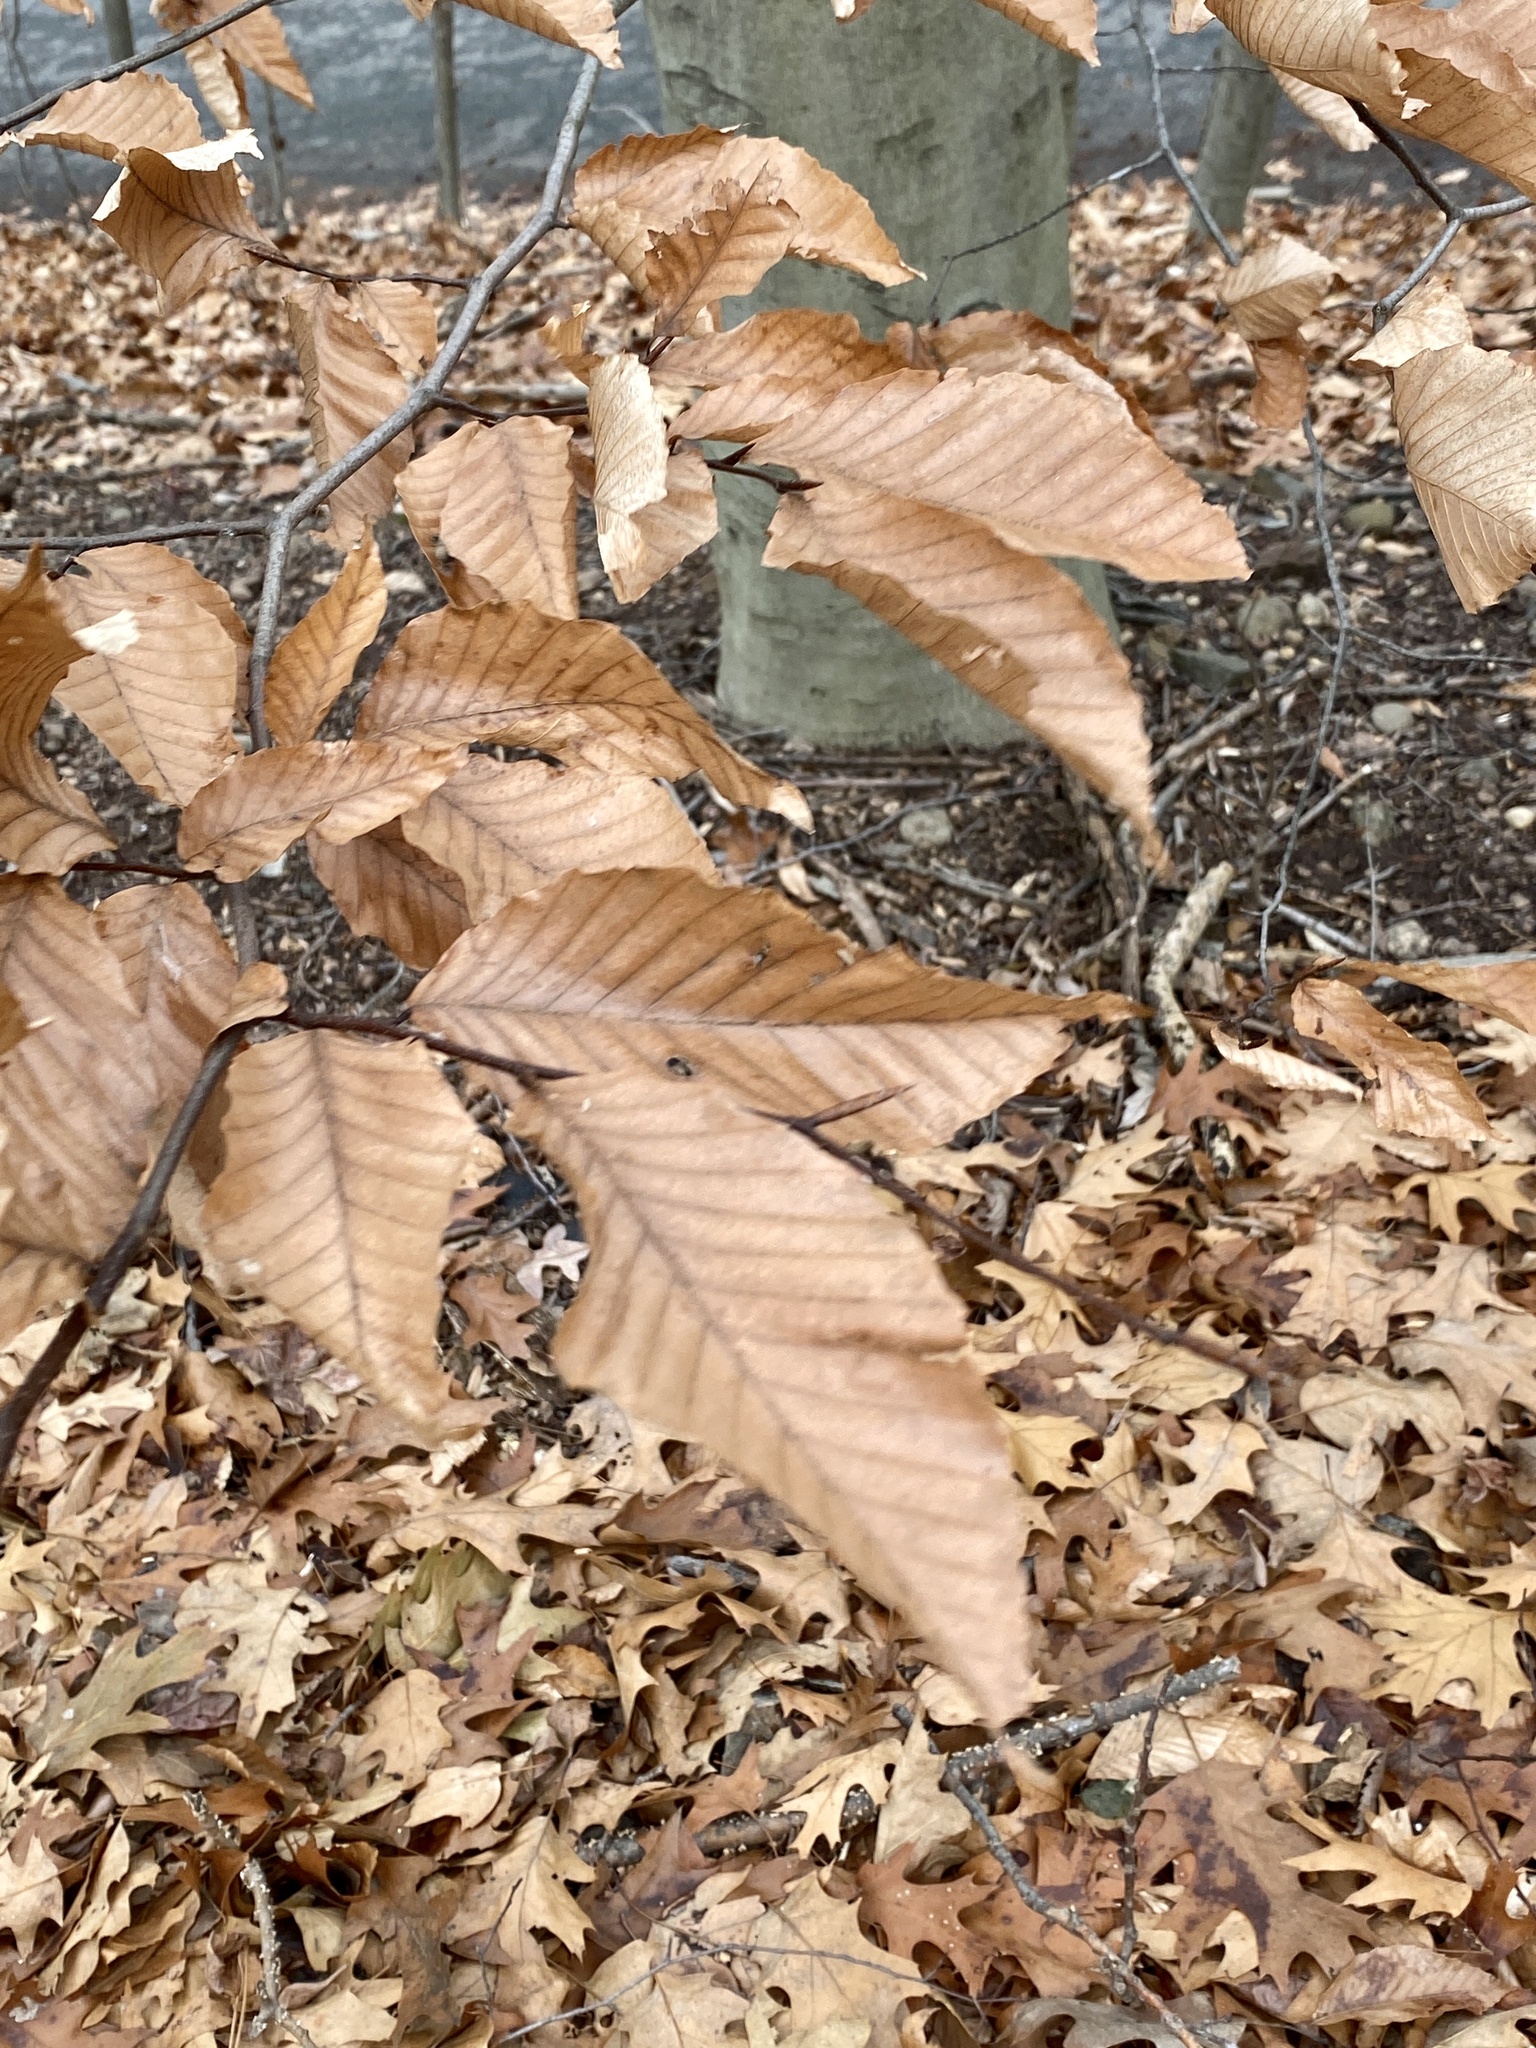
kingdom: Plantae
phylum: Tracheophyta
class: Magnoliopsida
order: Fagales
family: Fagaceae
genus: Fagus
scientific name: Fagus grandifolia
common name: American beech
